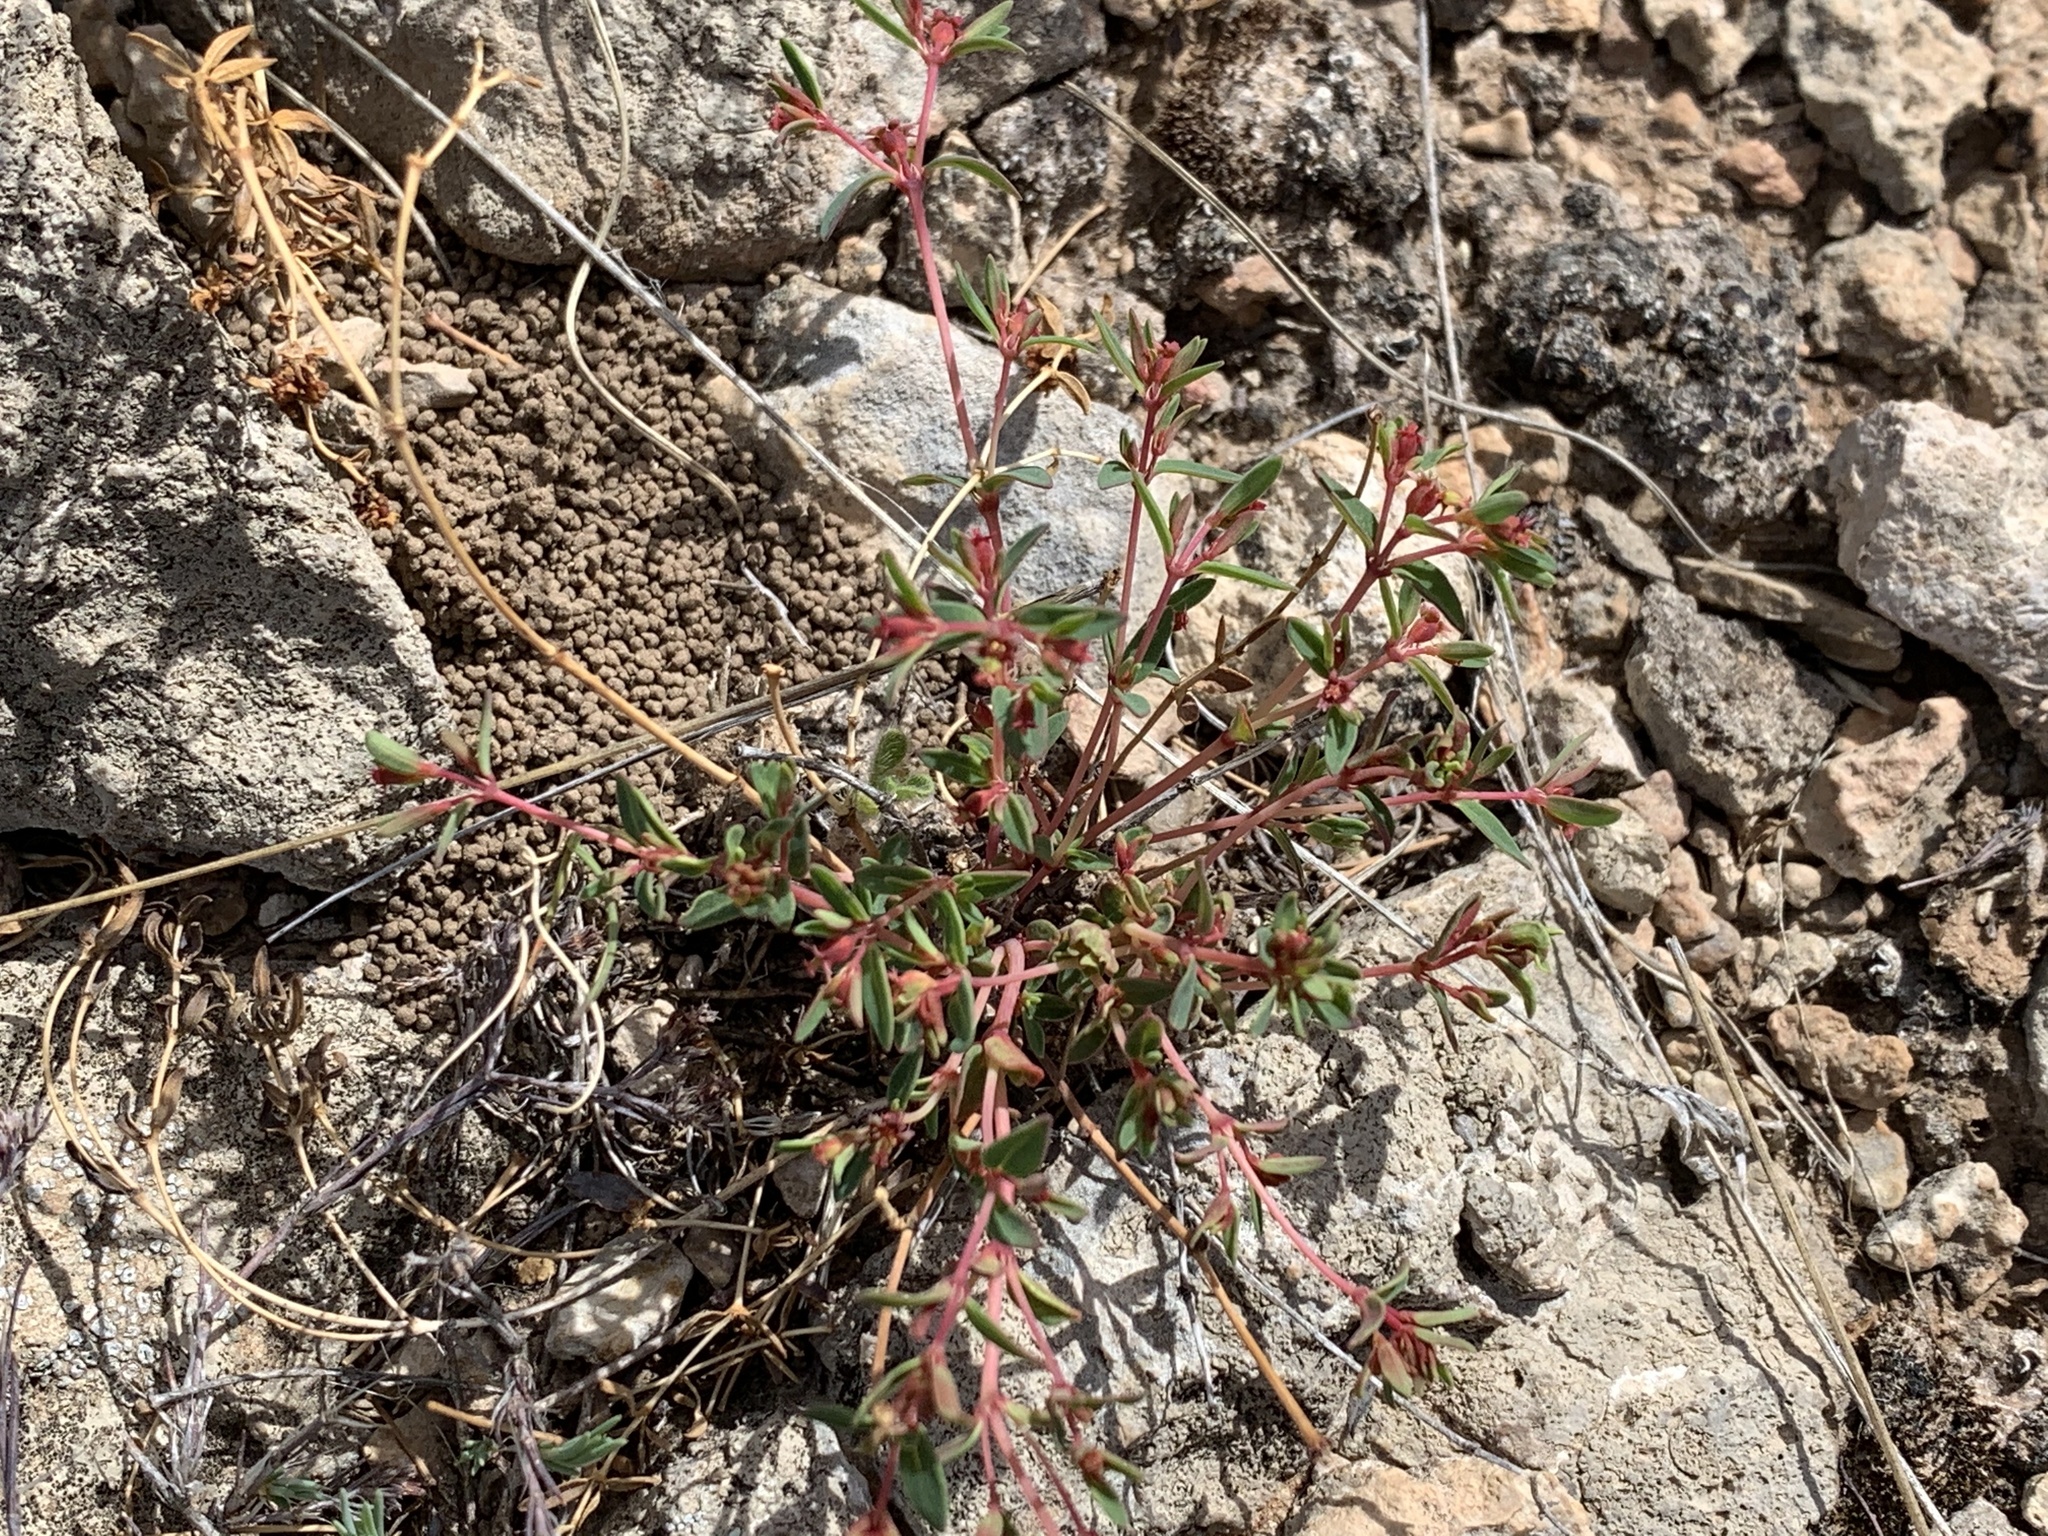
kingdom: Plantae
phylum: Tracheophyta
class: Magnoliopsida
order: Malpighiales
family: Euphorbiaceae
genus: Euphorbia
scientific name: Euphorbia chaetocalyx
